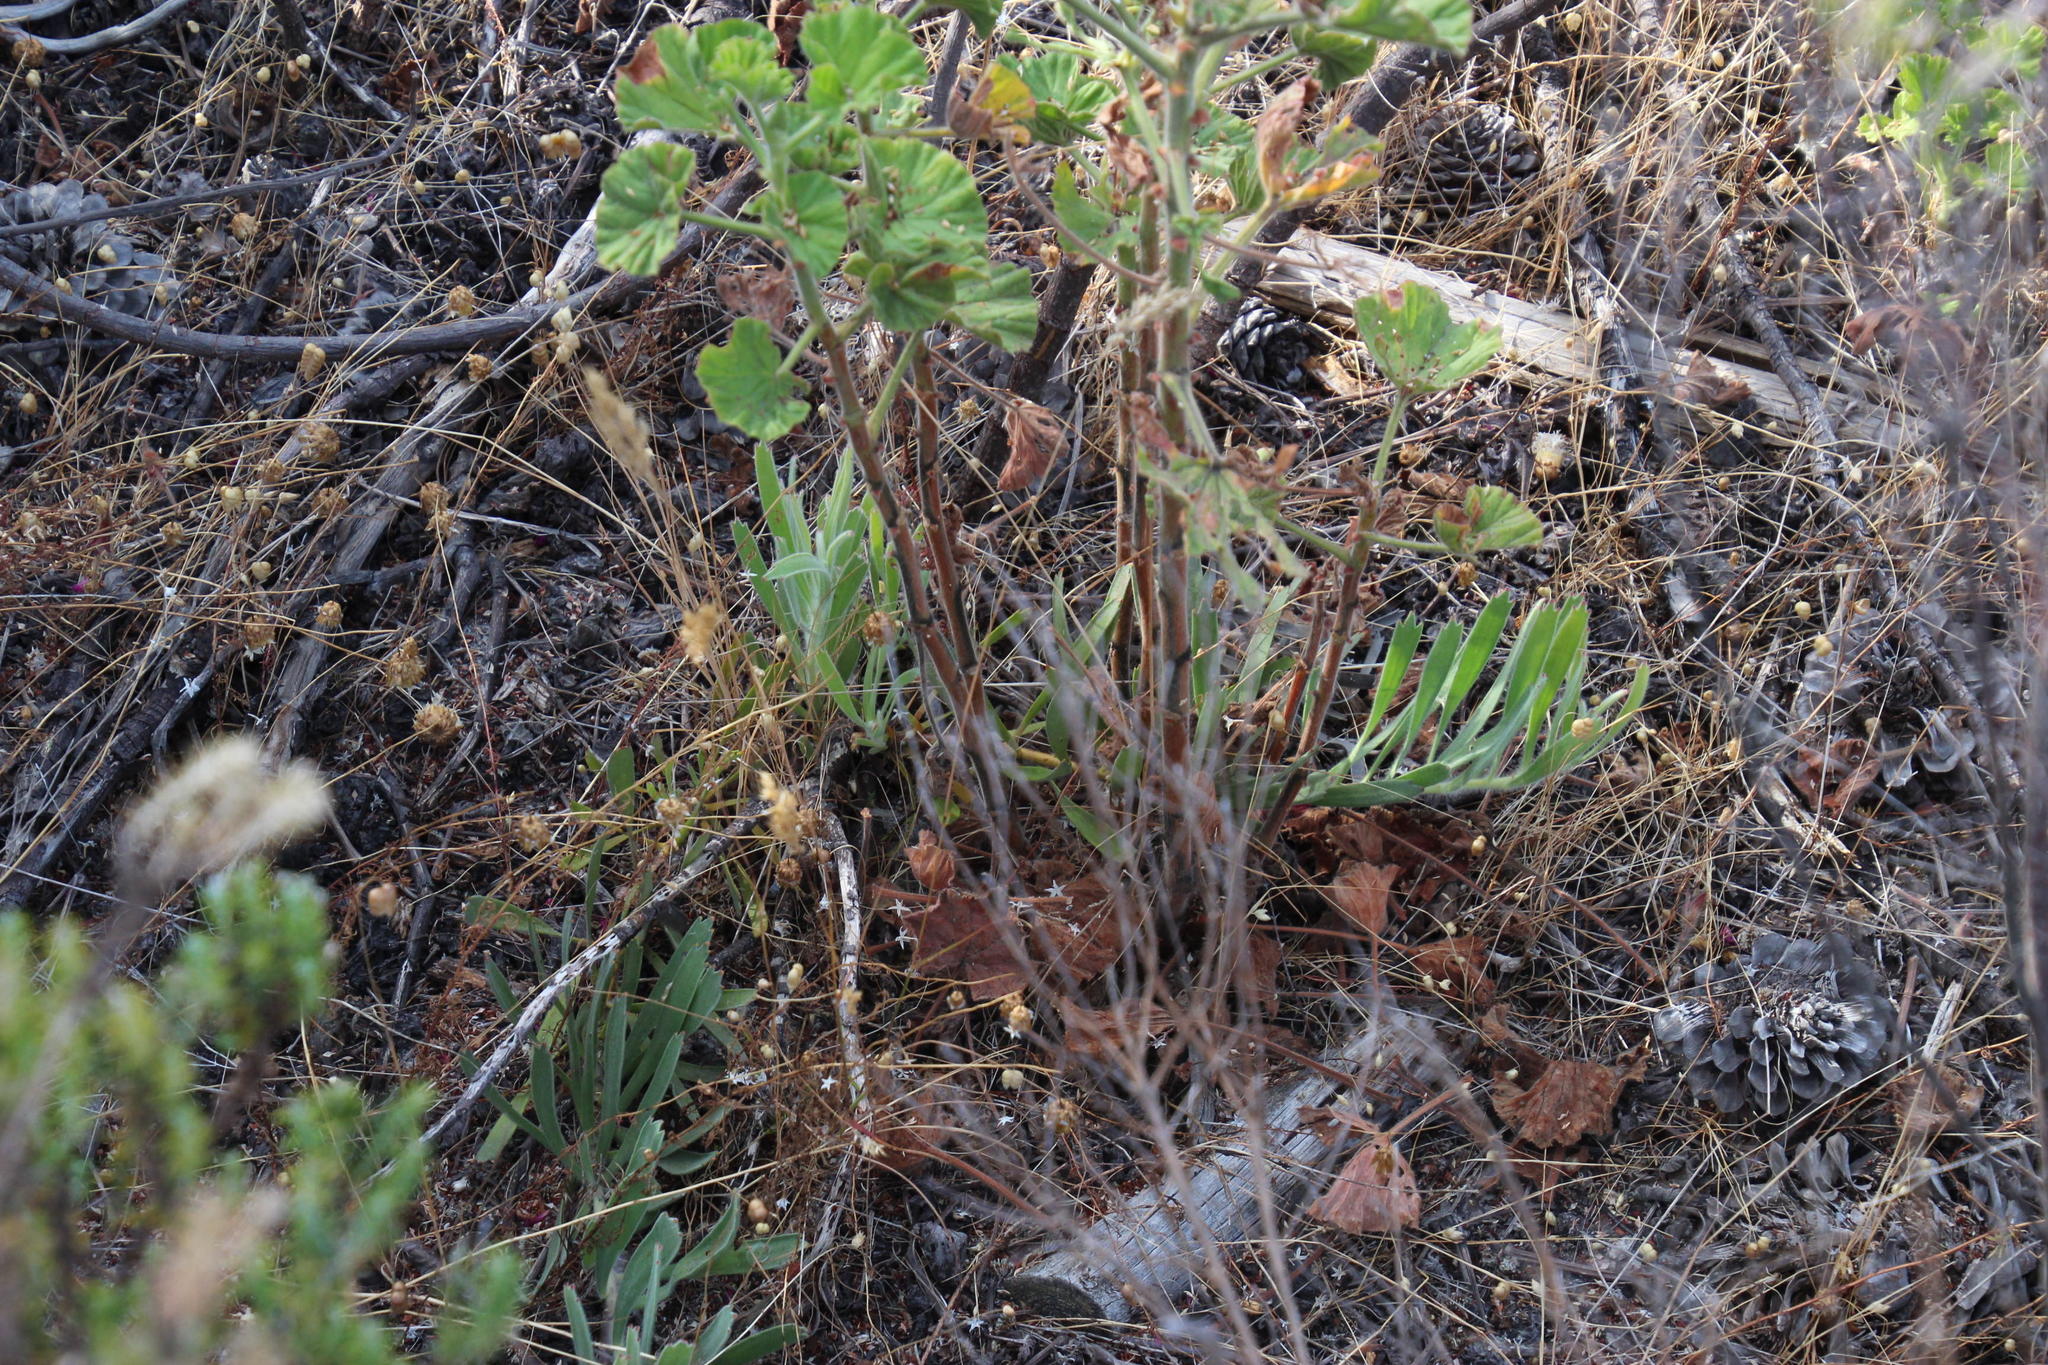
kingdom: Plantae
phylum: Tracheophyta
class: Magnoliopsida
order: Proteales
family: Proteaceae
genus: Leucospermum
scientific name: Leucospermum hypophyllocarpodendron
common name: Snakestem pincushion
